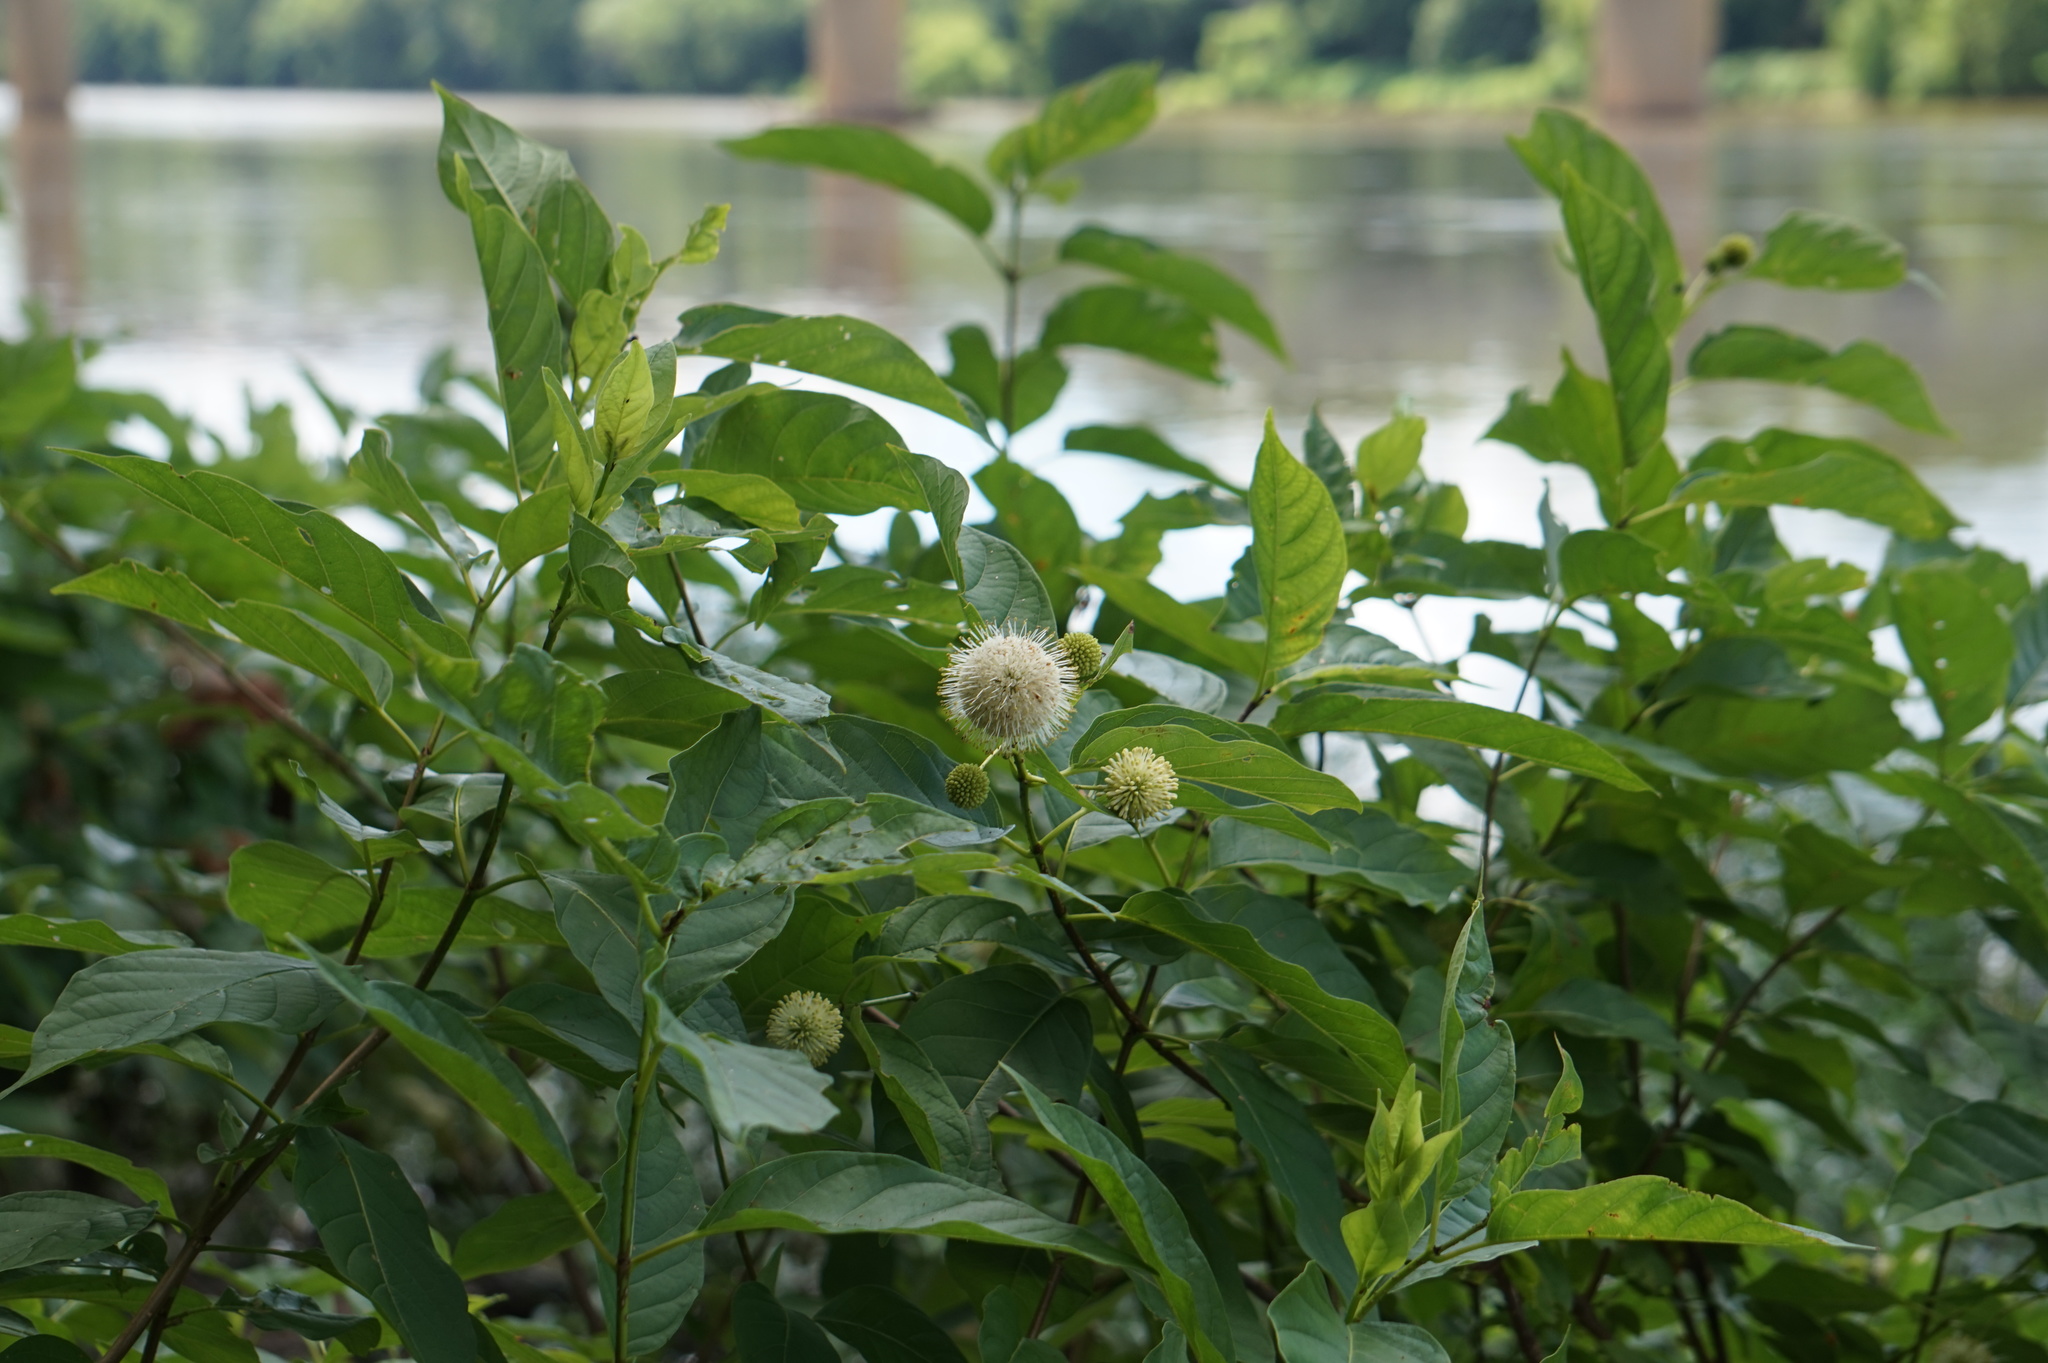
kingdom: Plantae
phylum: Tracheophyta
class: Magnoliopsida
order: Gentianales
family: Rubiaceae
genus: Cephalanthus
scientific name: Cephalanthus occidentalis
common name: Button-willow
